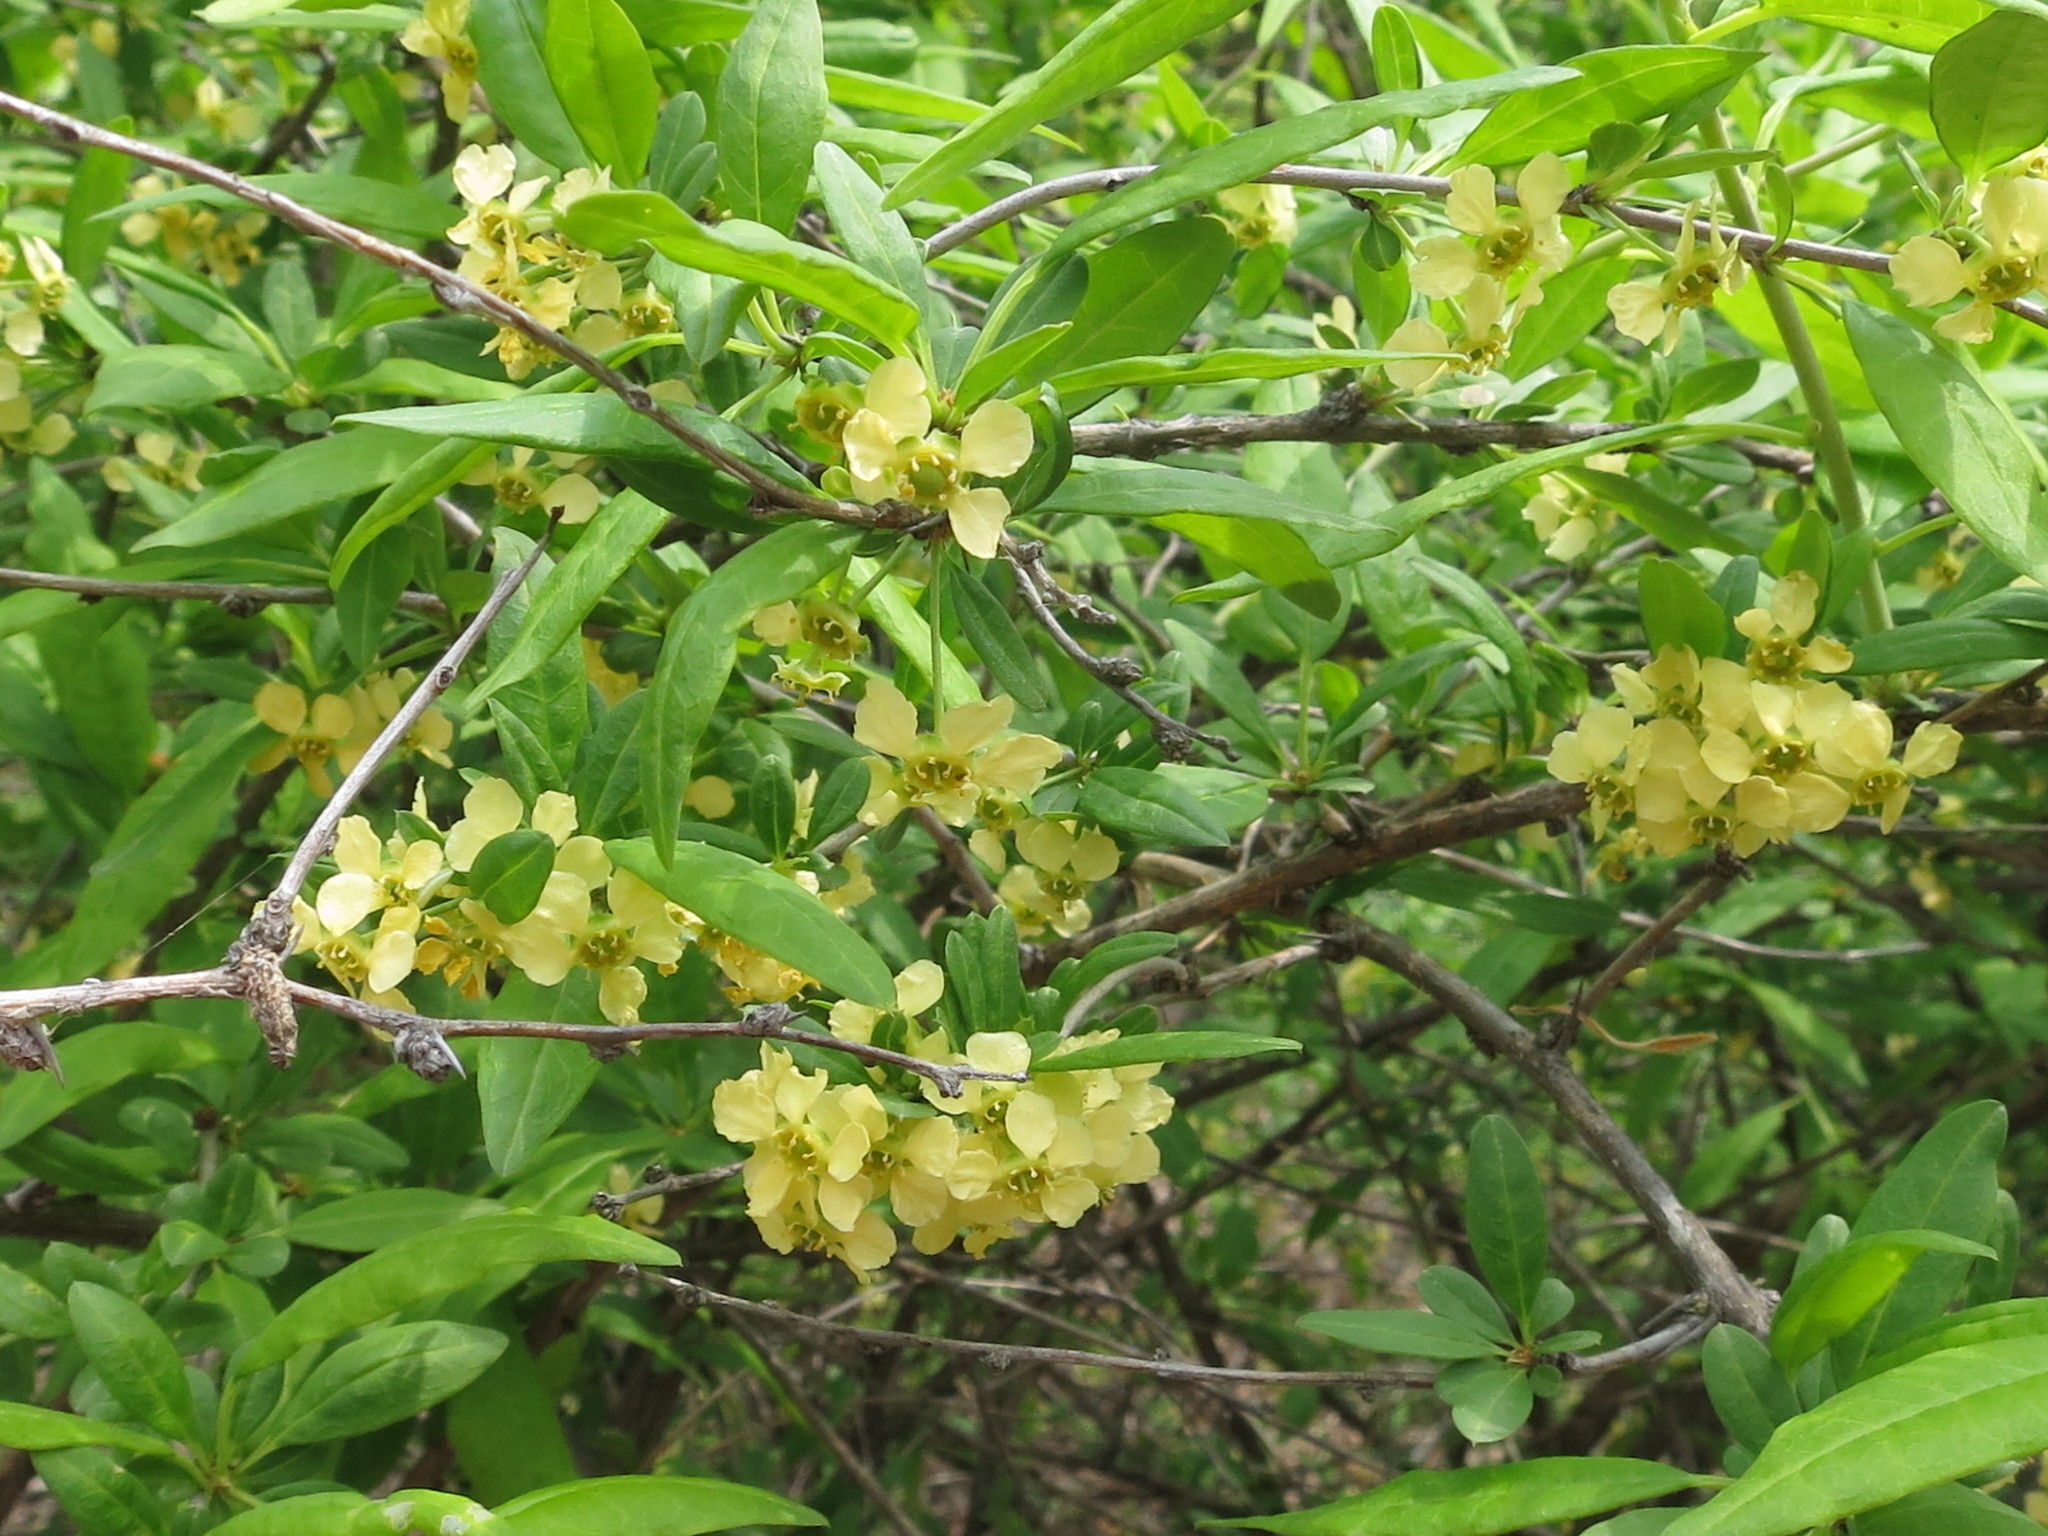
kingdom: Plantae
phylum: Tracheophyta
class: Magnoliopsida
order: Rosales
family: Rosaceae
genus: Prinsepia
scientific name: Prinsepia sinensis
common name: Cherry prinsepia
